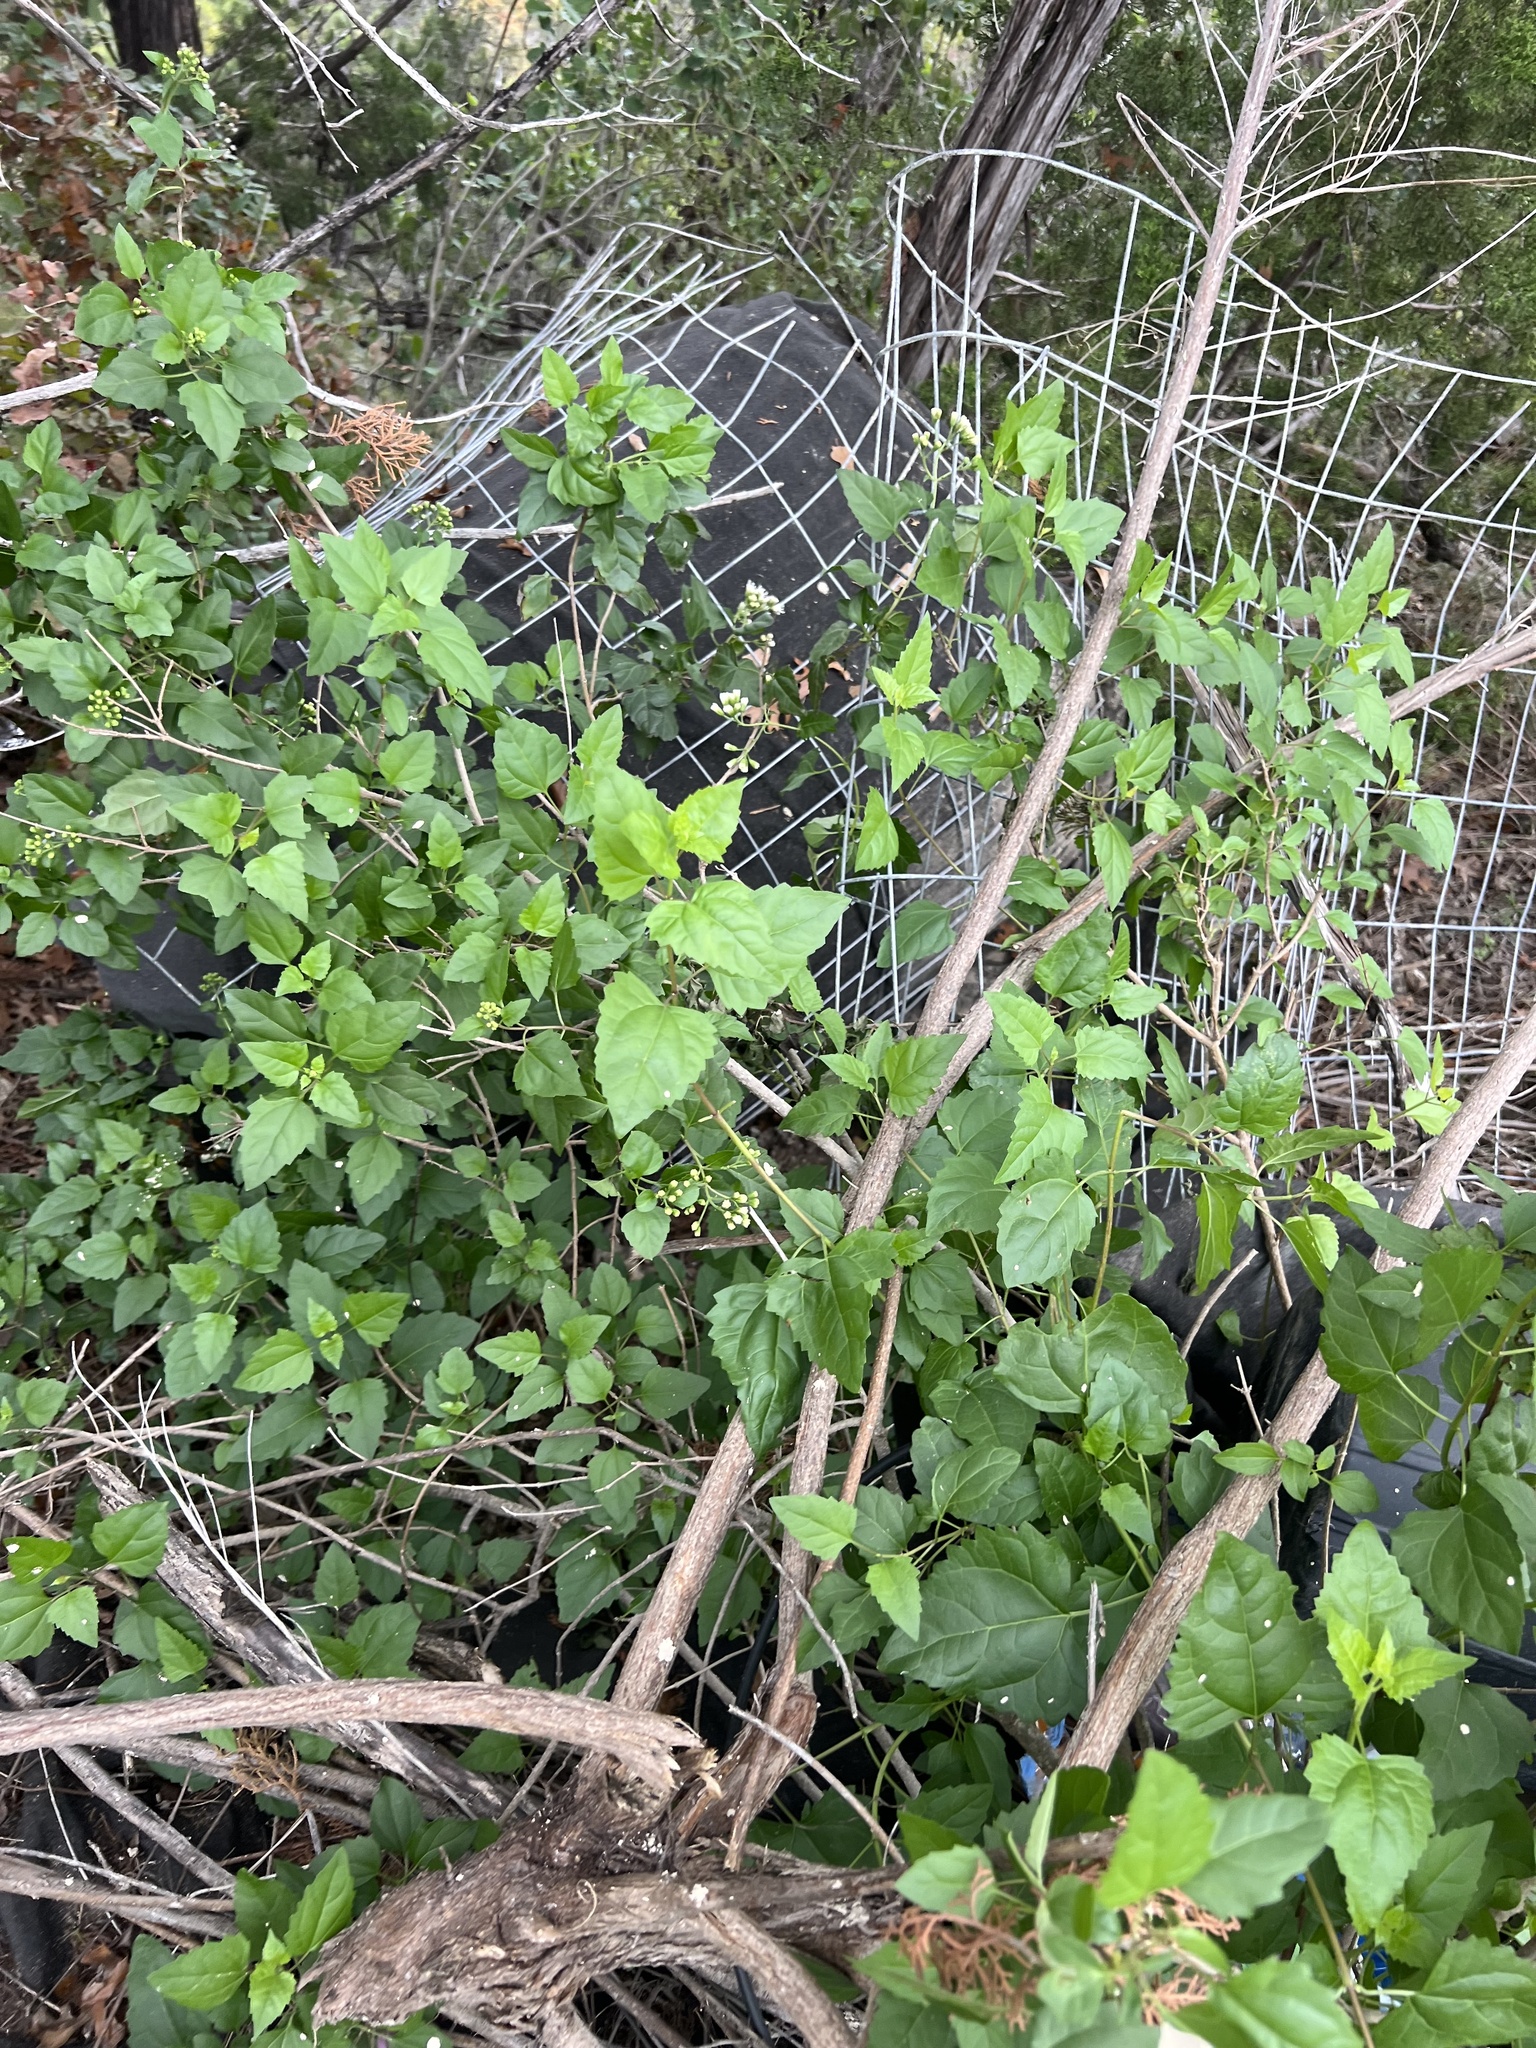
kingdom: Plantae
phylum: Tracheophyta
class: Magnoliopsida
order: Asterales
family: Asteraceae
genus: Ageratina
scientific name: Ageratina havanensis
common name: Havana snakeroot
